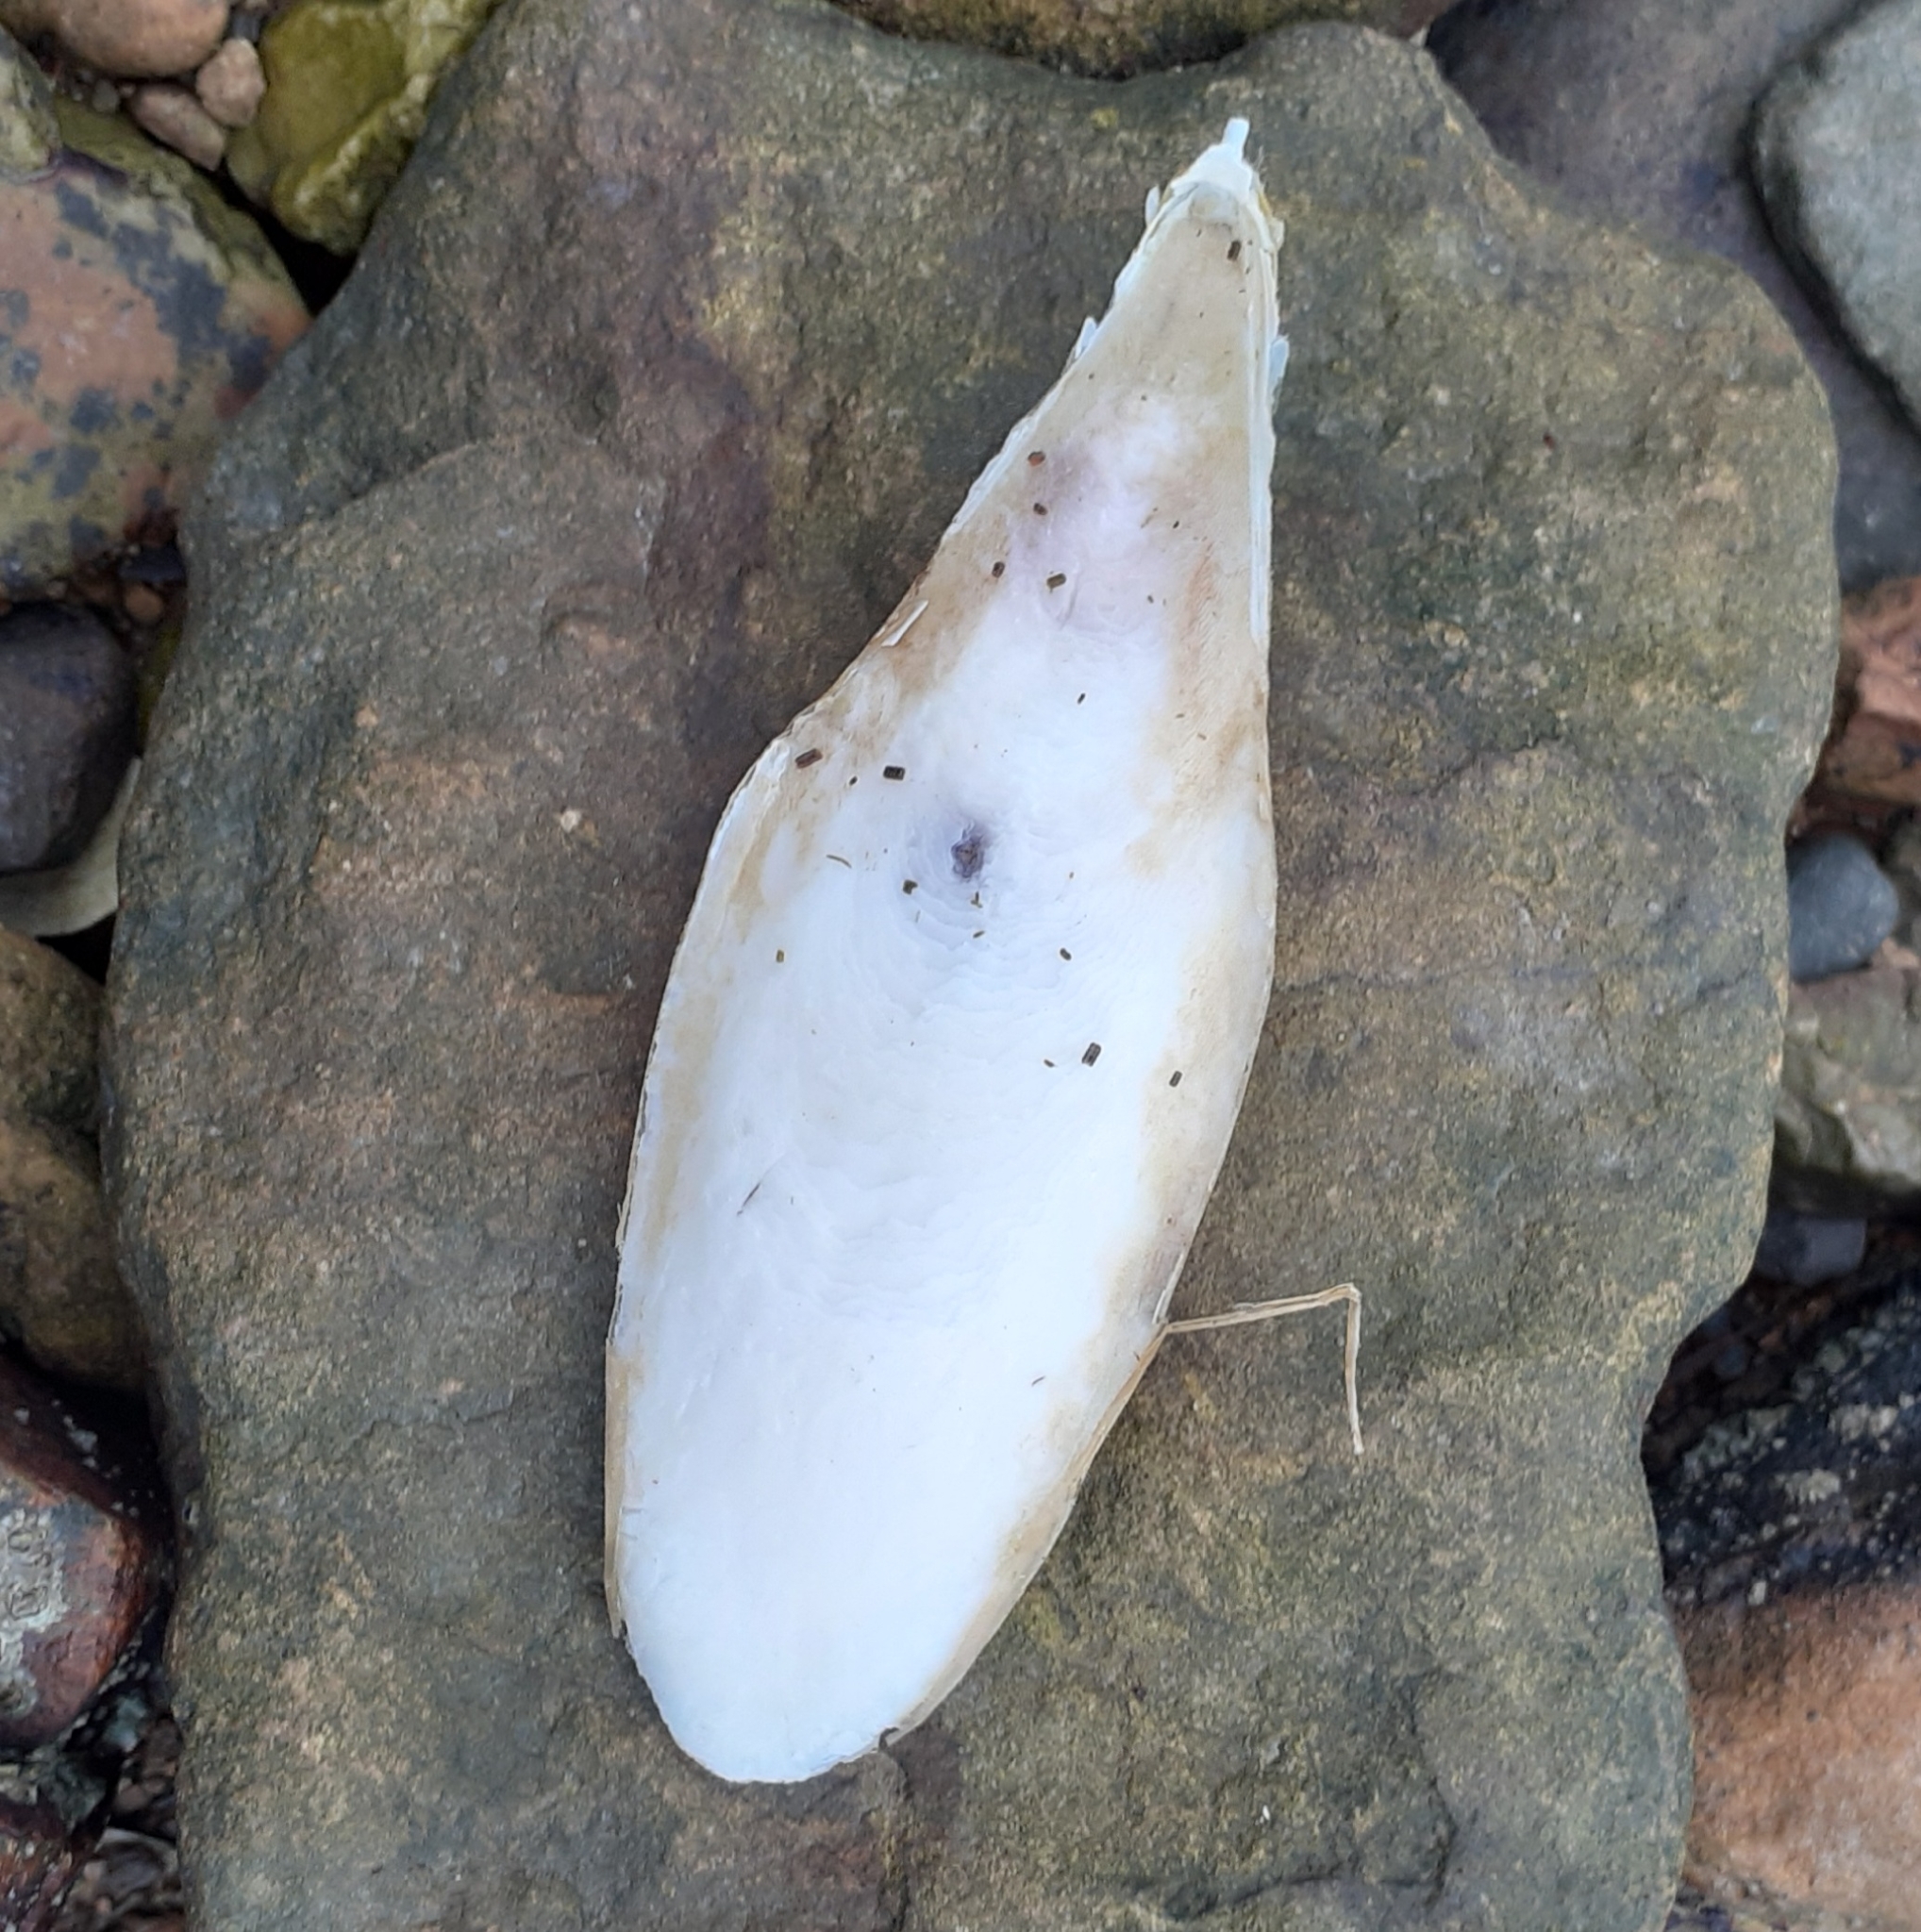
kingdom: Animalia
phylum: Mollusca
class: Cephalopoda
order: Sepiida
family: Sepiidae
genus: Sepia
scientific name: Sepia officinalis
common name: Common cuttlefish
